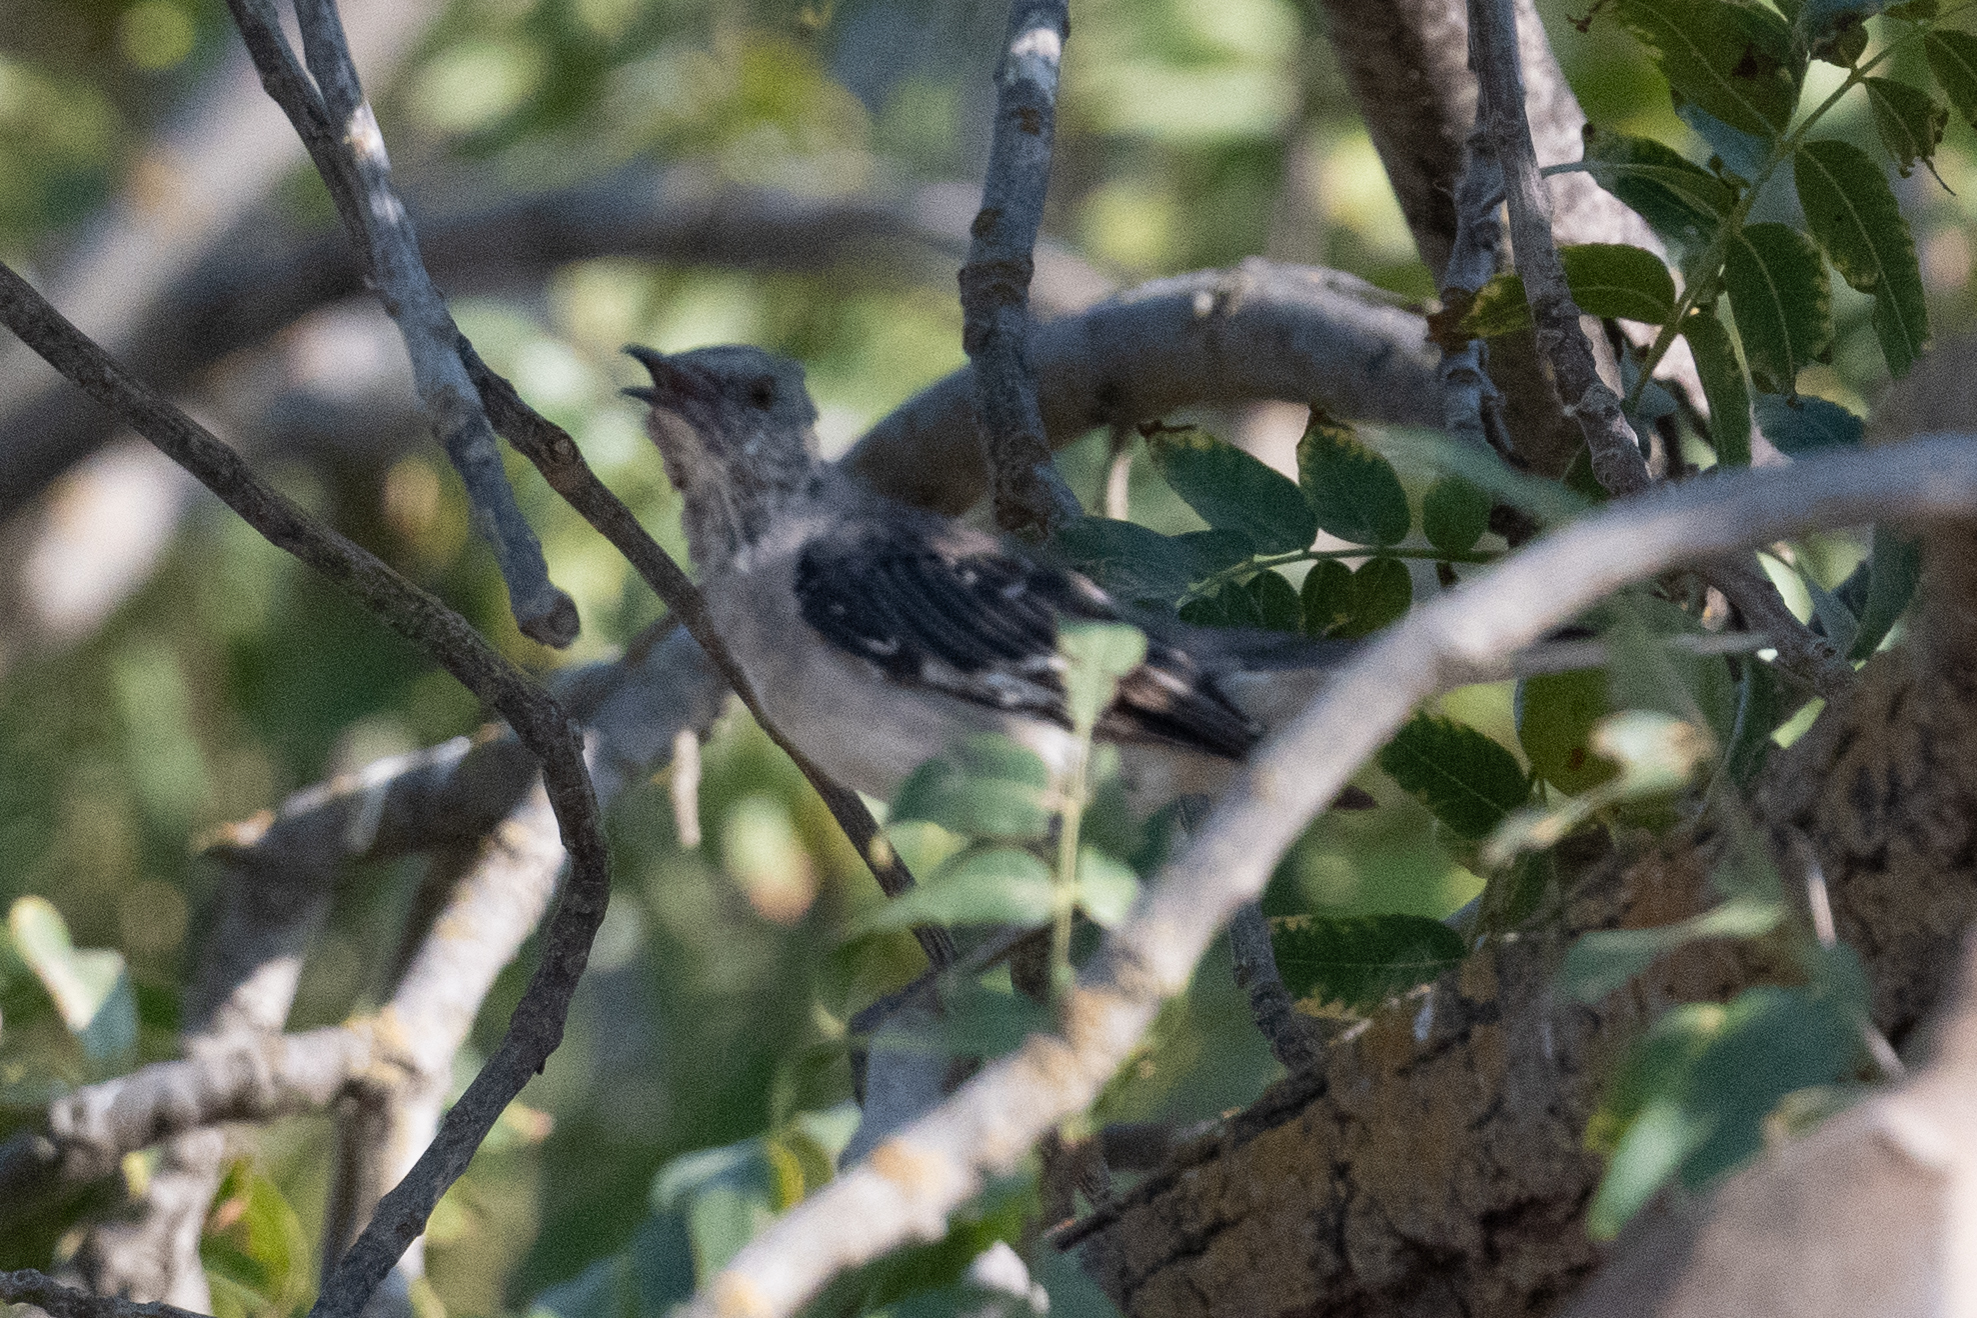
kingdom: Animalia
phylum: Chordata
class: Aves
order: Passeriformes
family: Mimidae
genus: Mimus
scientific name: Mimus polyglottos
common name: Northern mockingbird
